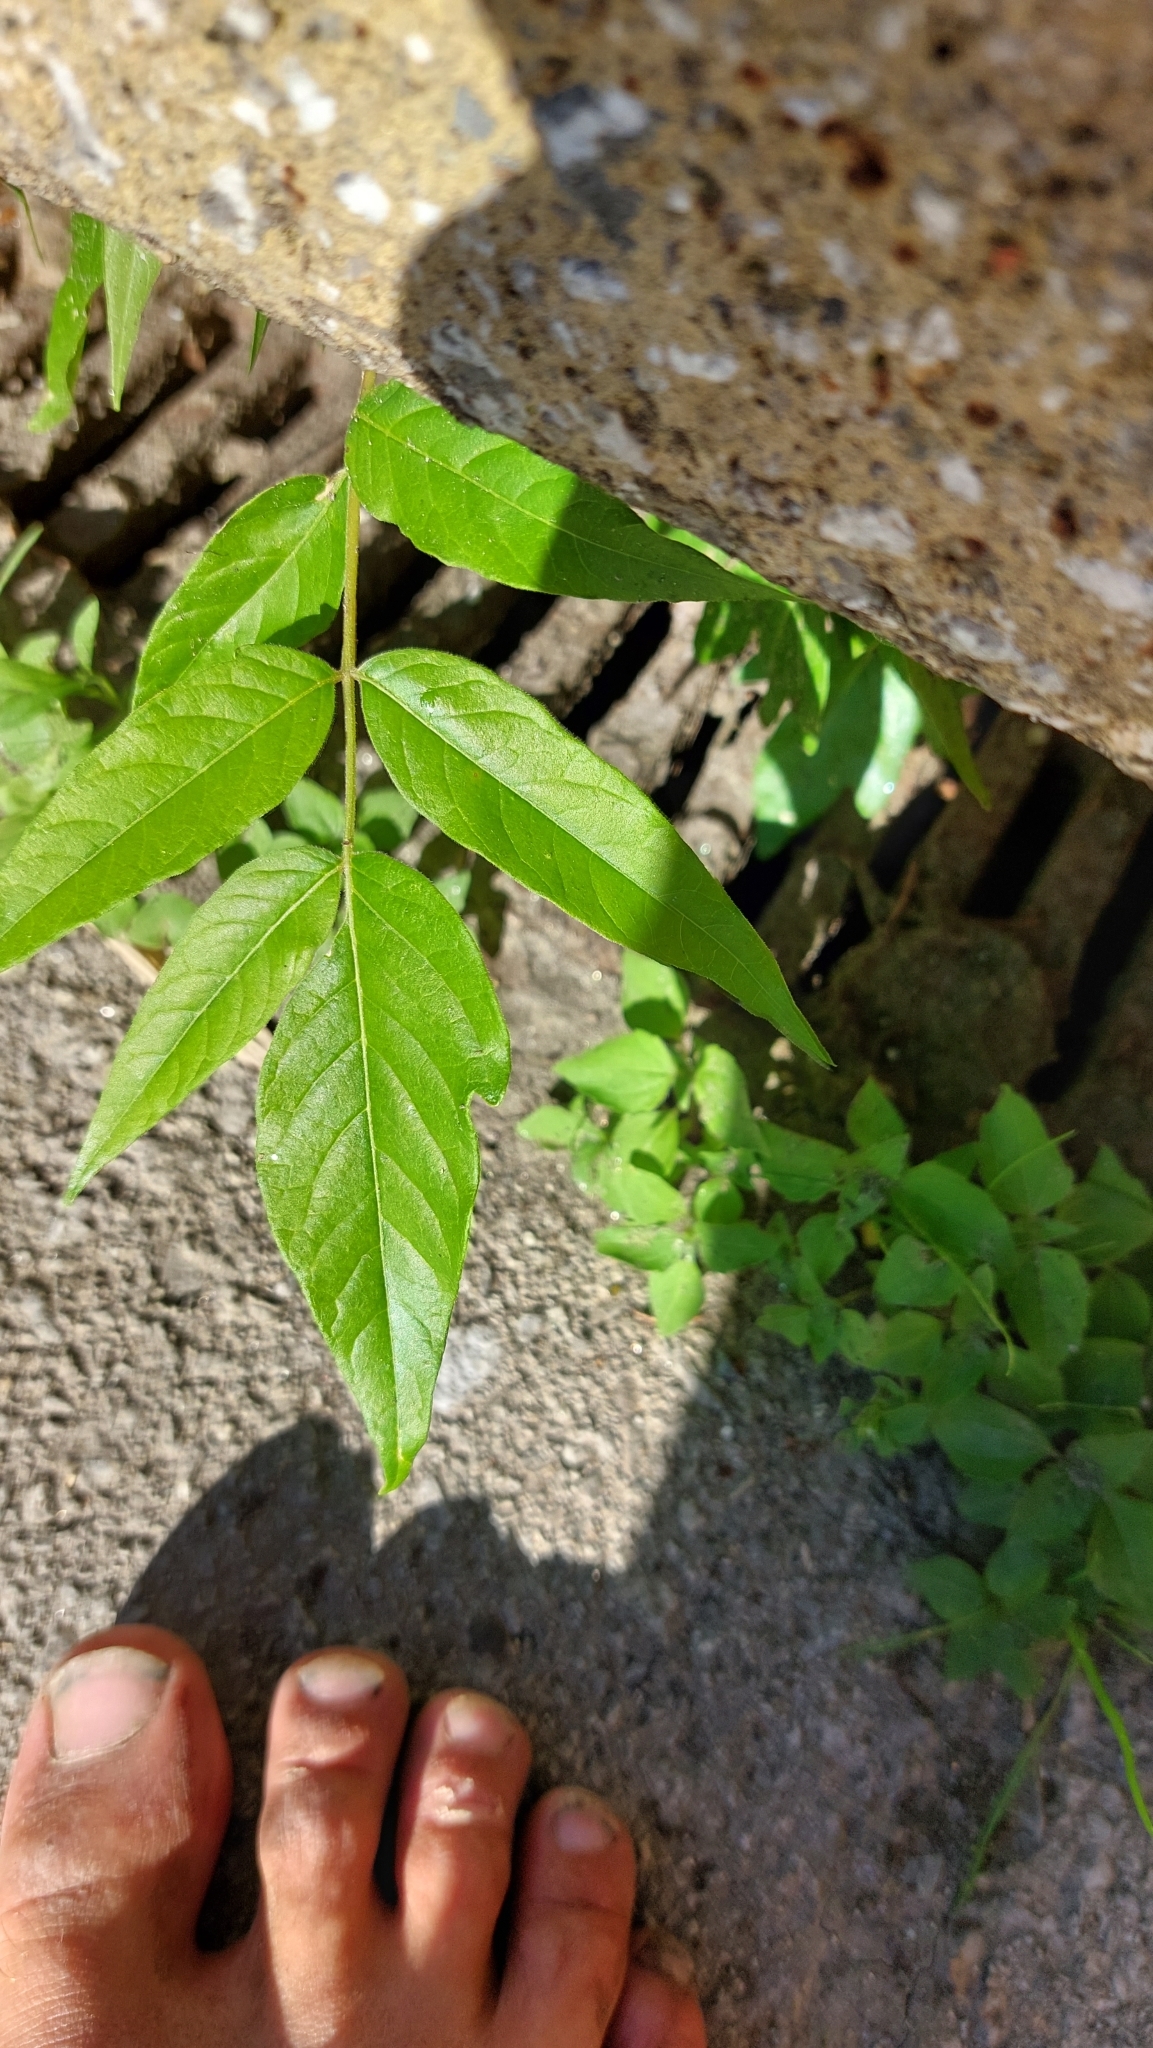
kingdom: Plantae
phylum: Tracheophyta
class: Magnoliopsida
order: Sapindales
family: Simaroubaceae
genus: Ailanthus
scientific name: Ailanthus altissima
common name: Tree-of-heaven
